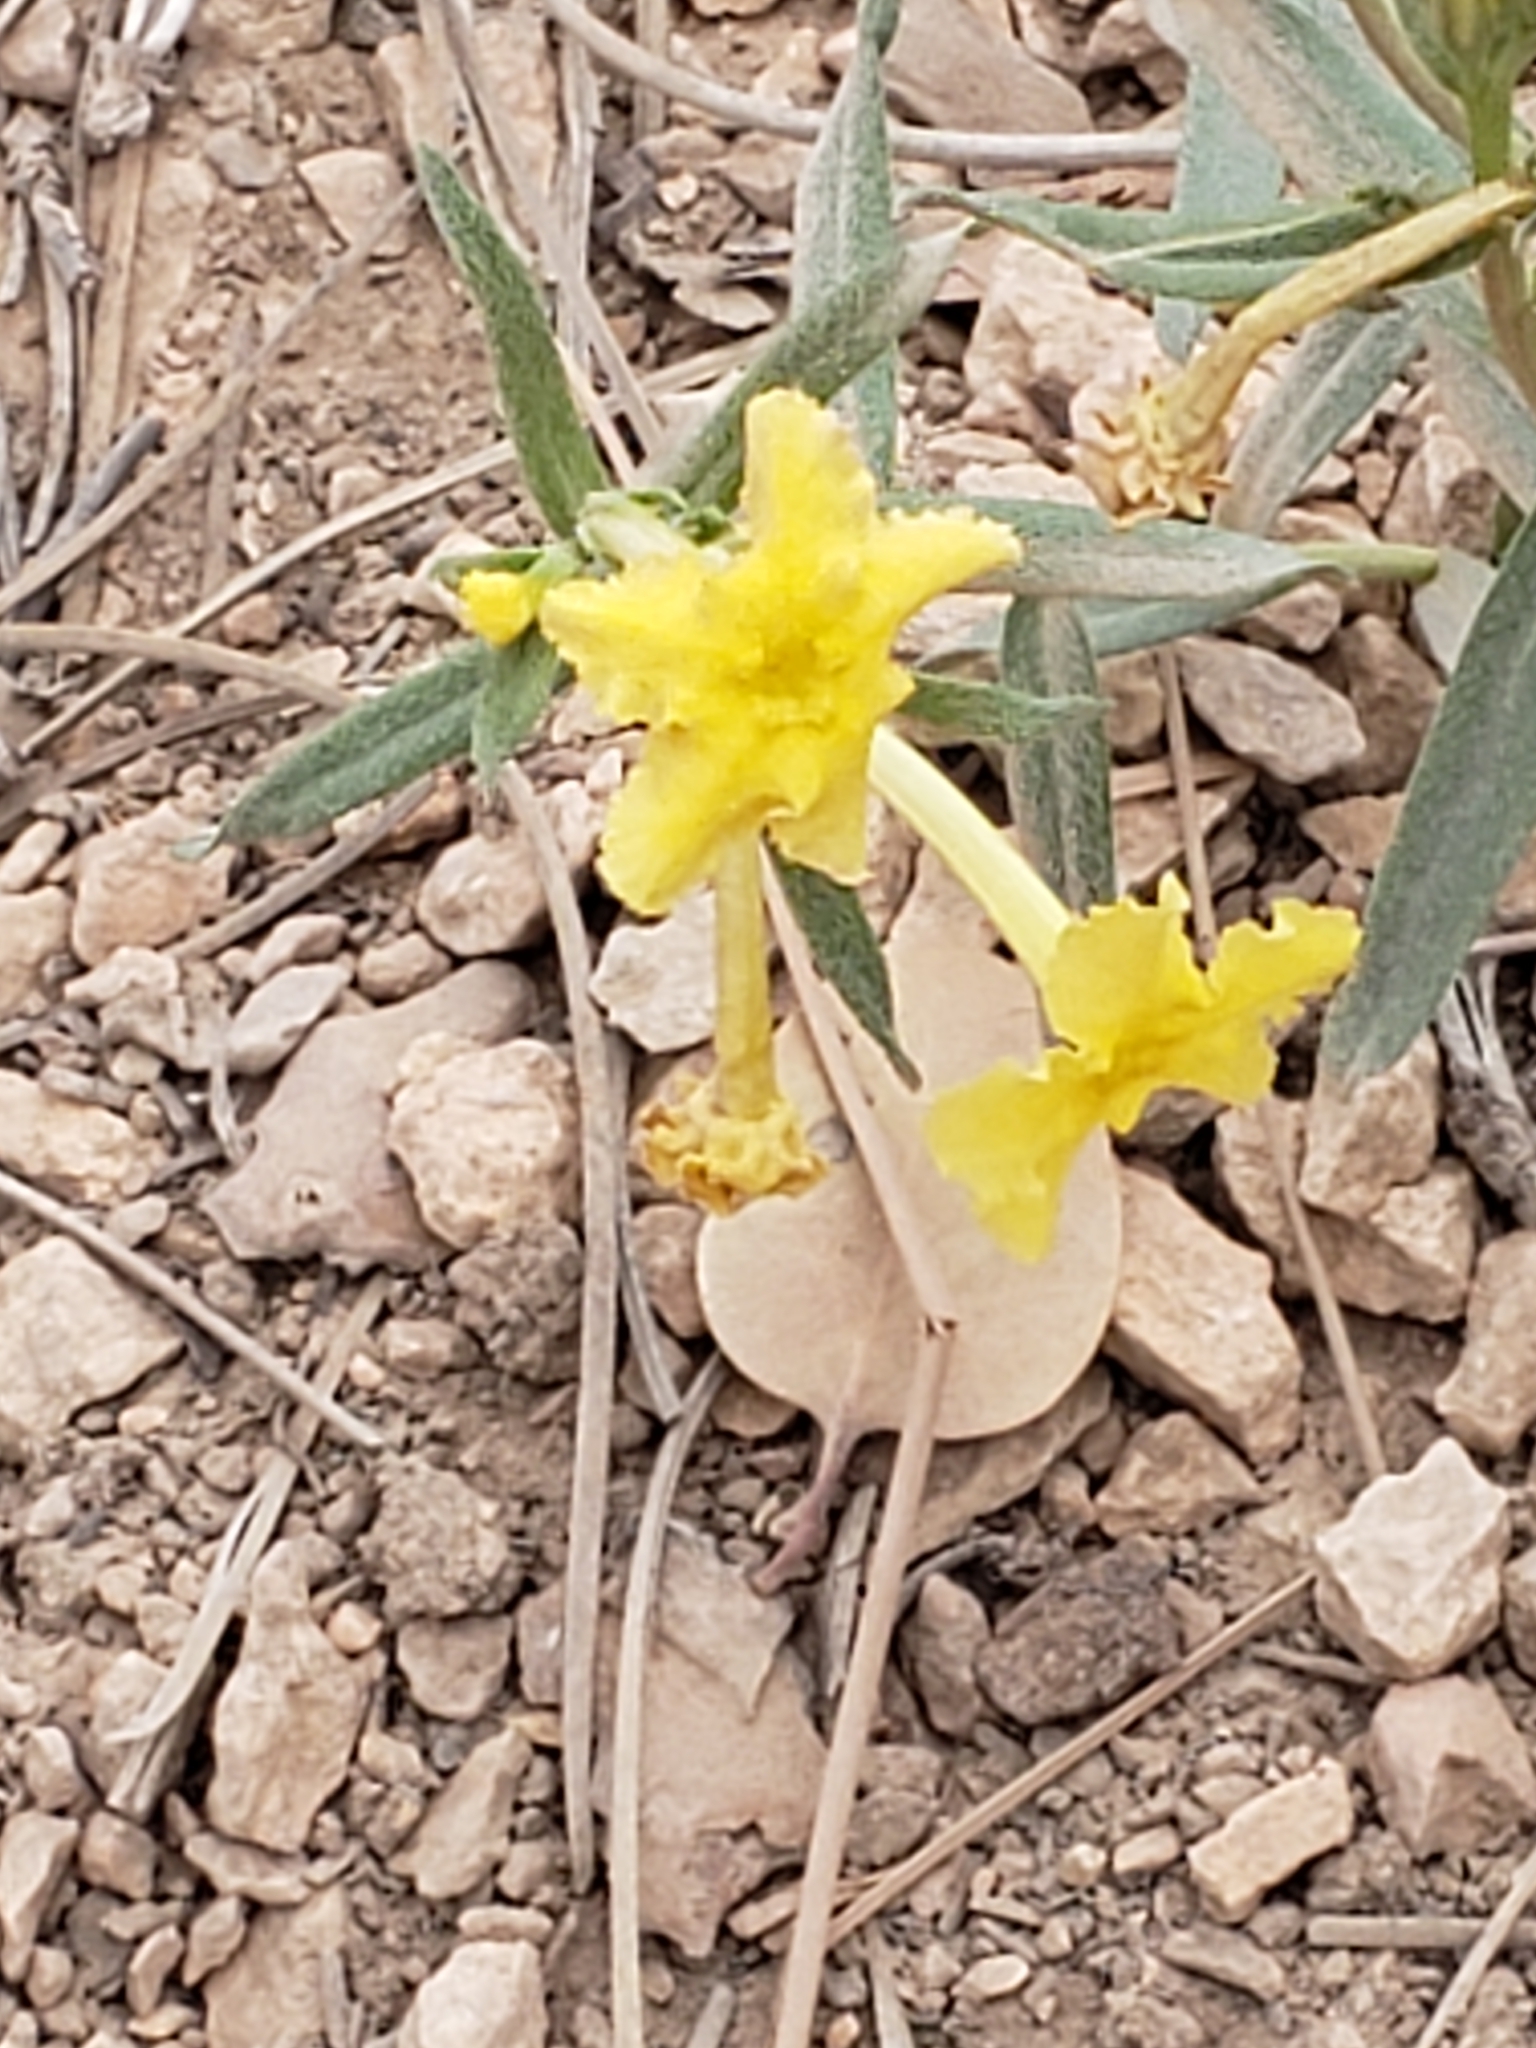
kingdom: Plantae
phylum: Tracheophyta
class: Magnoliopsida
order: Boraginales
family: Boraginaceae
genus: Lithospermum
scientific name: Lithospermum incisum
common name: Fringed gromwell
